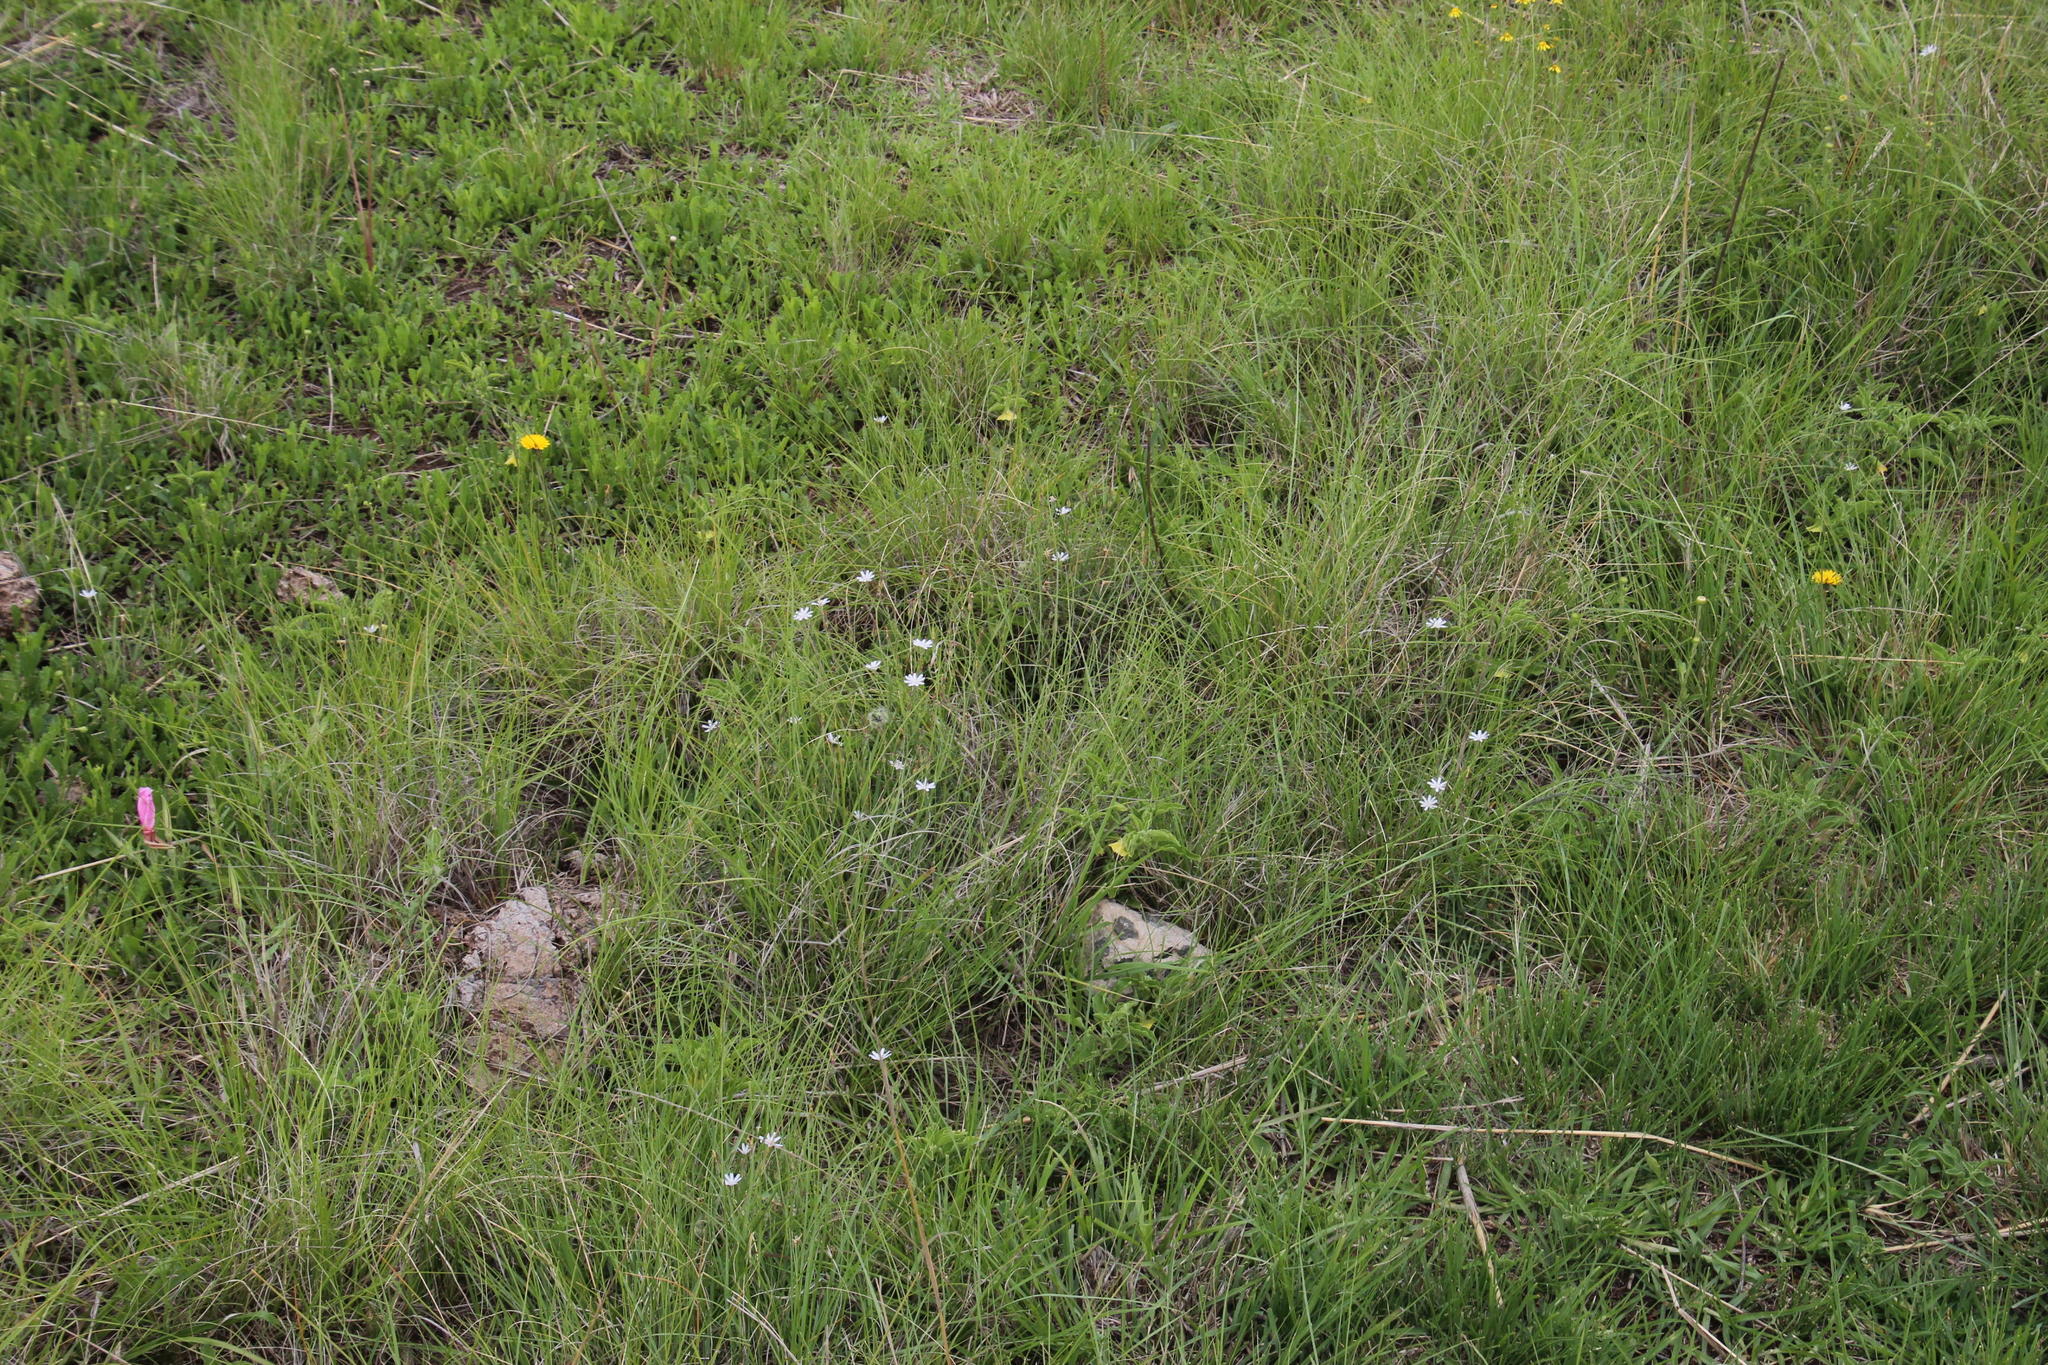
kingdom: Plantae
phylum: Tracheophyta
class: Magnoliopsida
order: Asterales
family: Asteraceae
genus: Lactuca
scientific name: Lactuca inermis
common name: Wild lettuce
